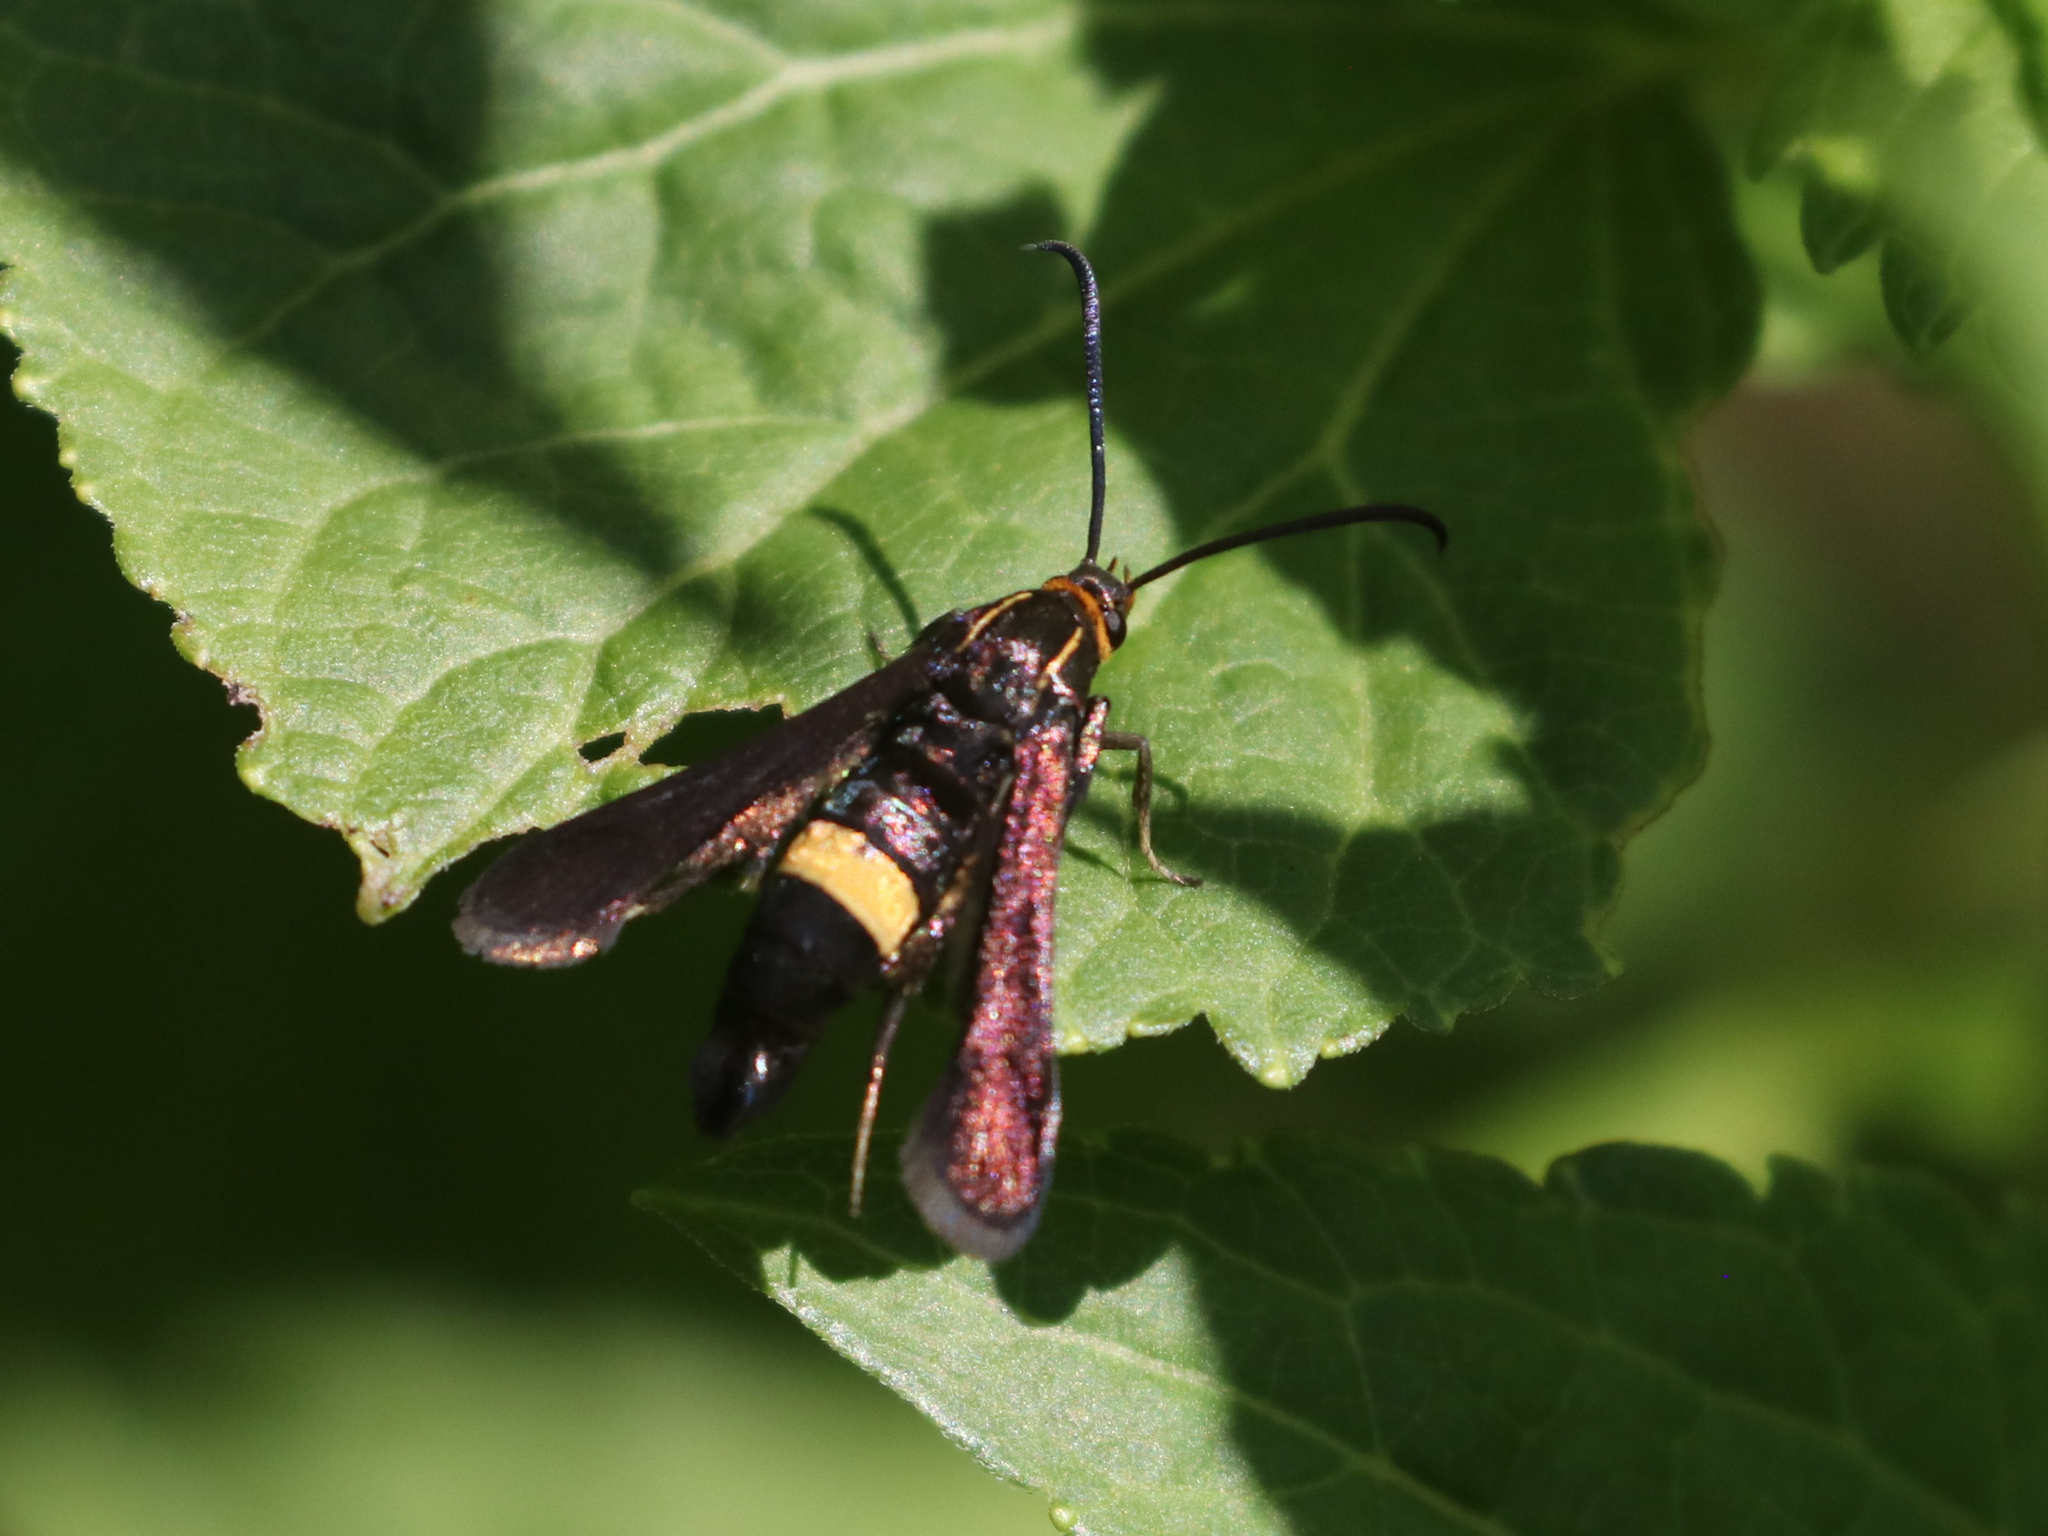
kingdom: Animalia
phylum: Arthropoda
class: Insecta
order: Lepidoptera
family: Sesiidae
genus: Carmenta
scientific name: Carmenta pyralidiformis
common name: Boneset borer moth
